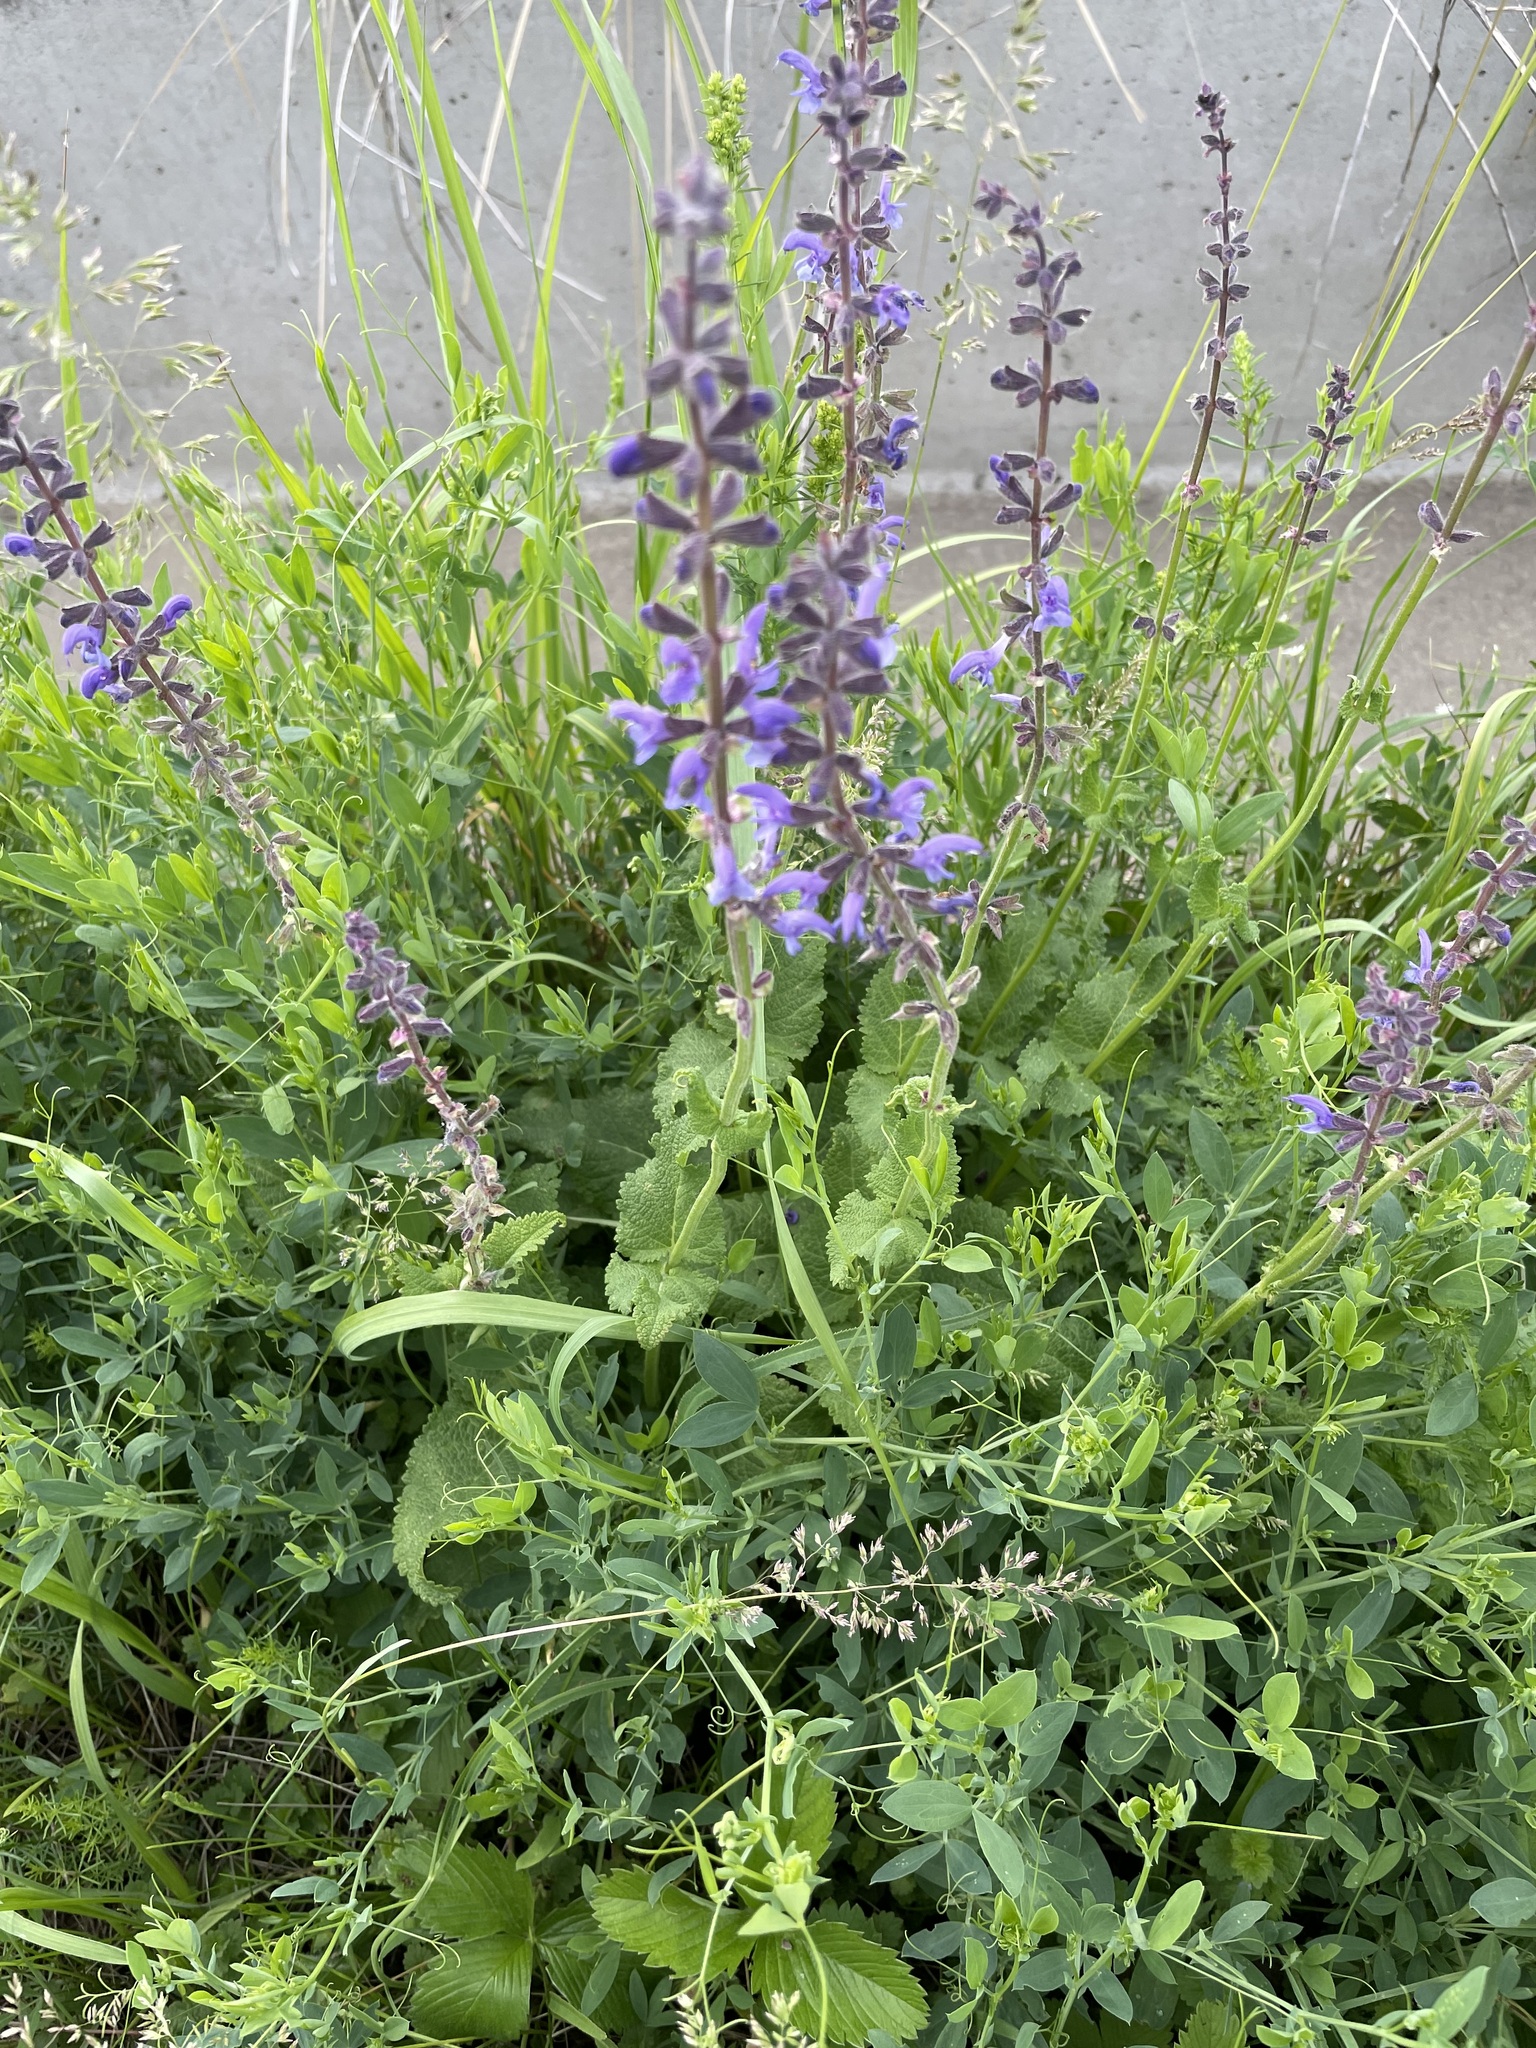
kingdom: Plantae
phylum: Tracheophyta
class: Magnoliopsida
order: Lamiales
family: Lamiaceae
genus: Salvia
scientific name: Salvia dumetorum
